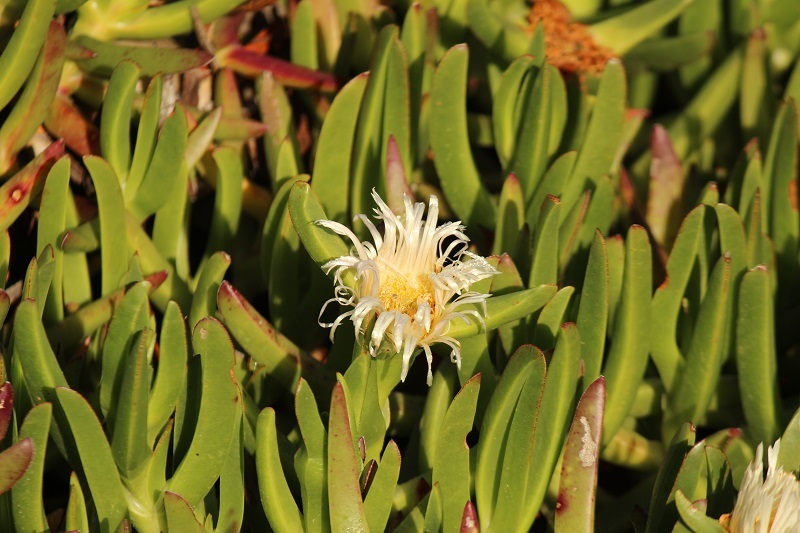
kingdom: Plantae
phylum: Tracheophyta
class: Magnoliopsida
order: Caryophyllales
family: Aizoaceae
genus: Carpobrotus
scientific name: Carpobrotus edulis
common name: Hottentot-fig
